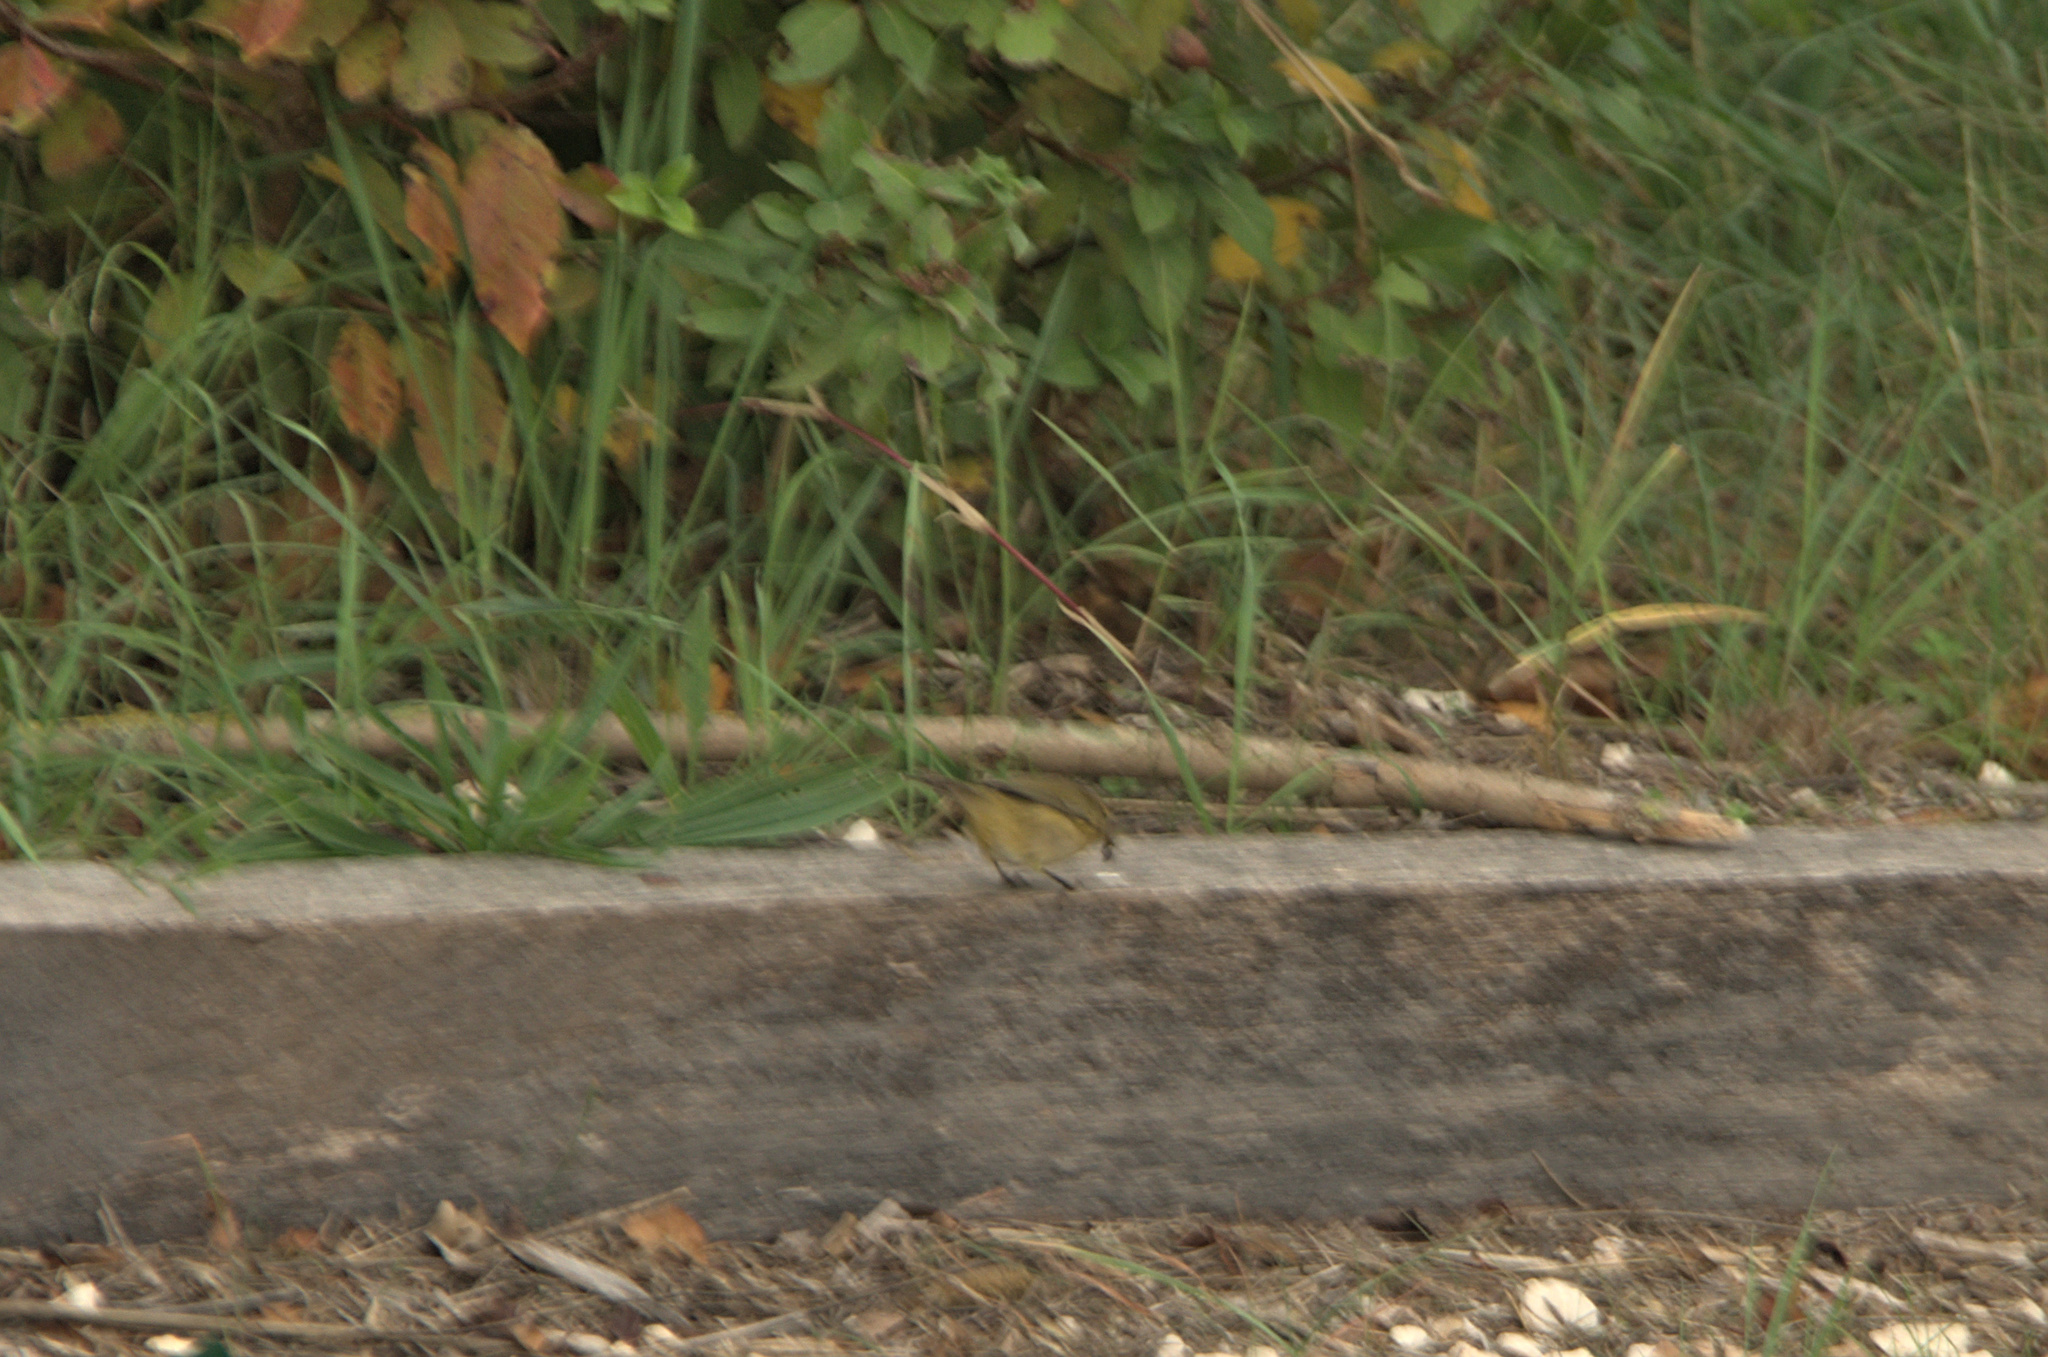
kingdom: Animalia
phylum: Chordata
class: Aves
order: Passeriformes
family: Phylloscopidae
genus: Phylloscopus
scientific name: Phylloscopus collybita
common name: Common chiffchaff
